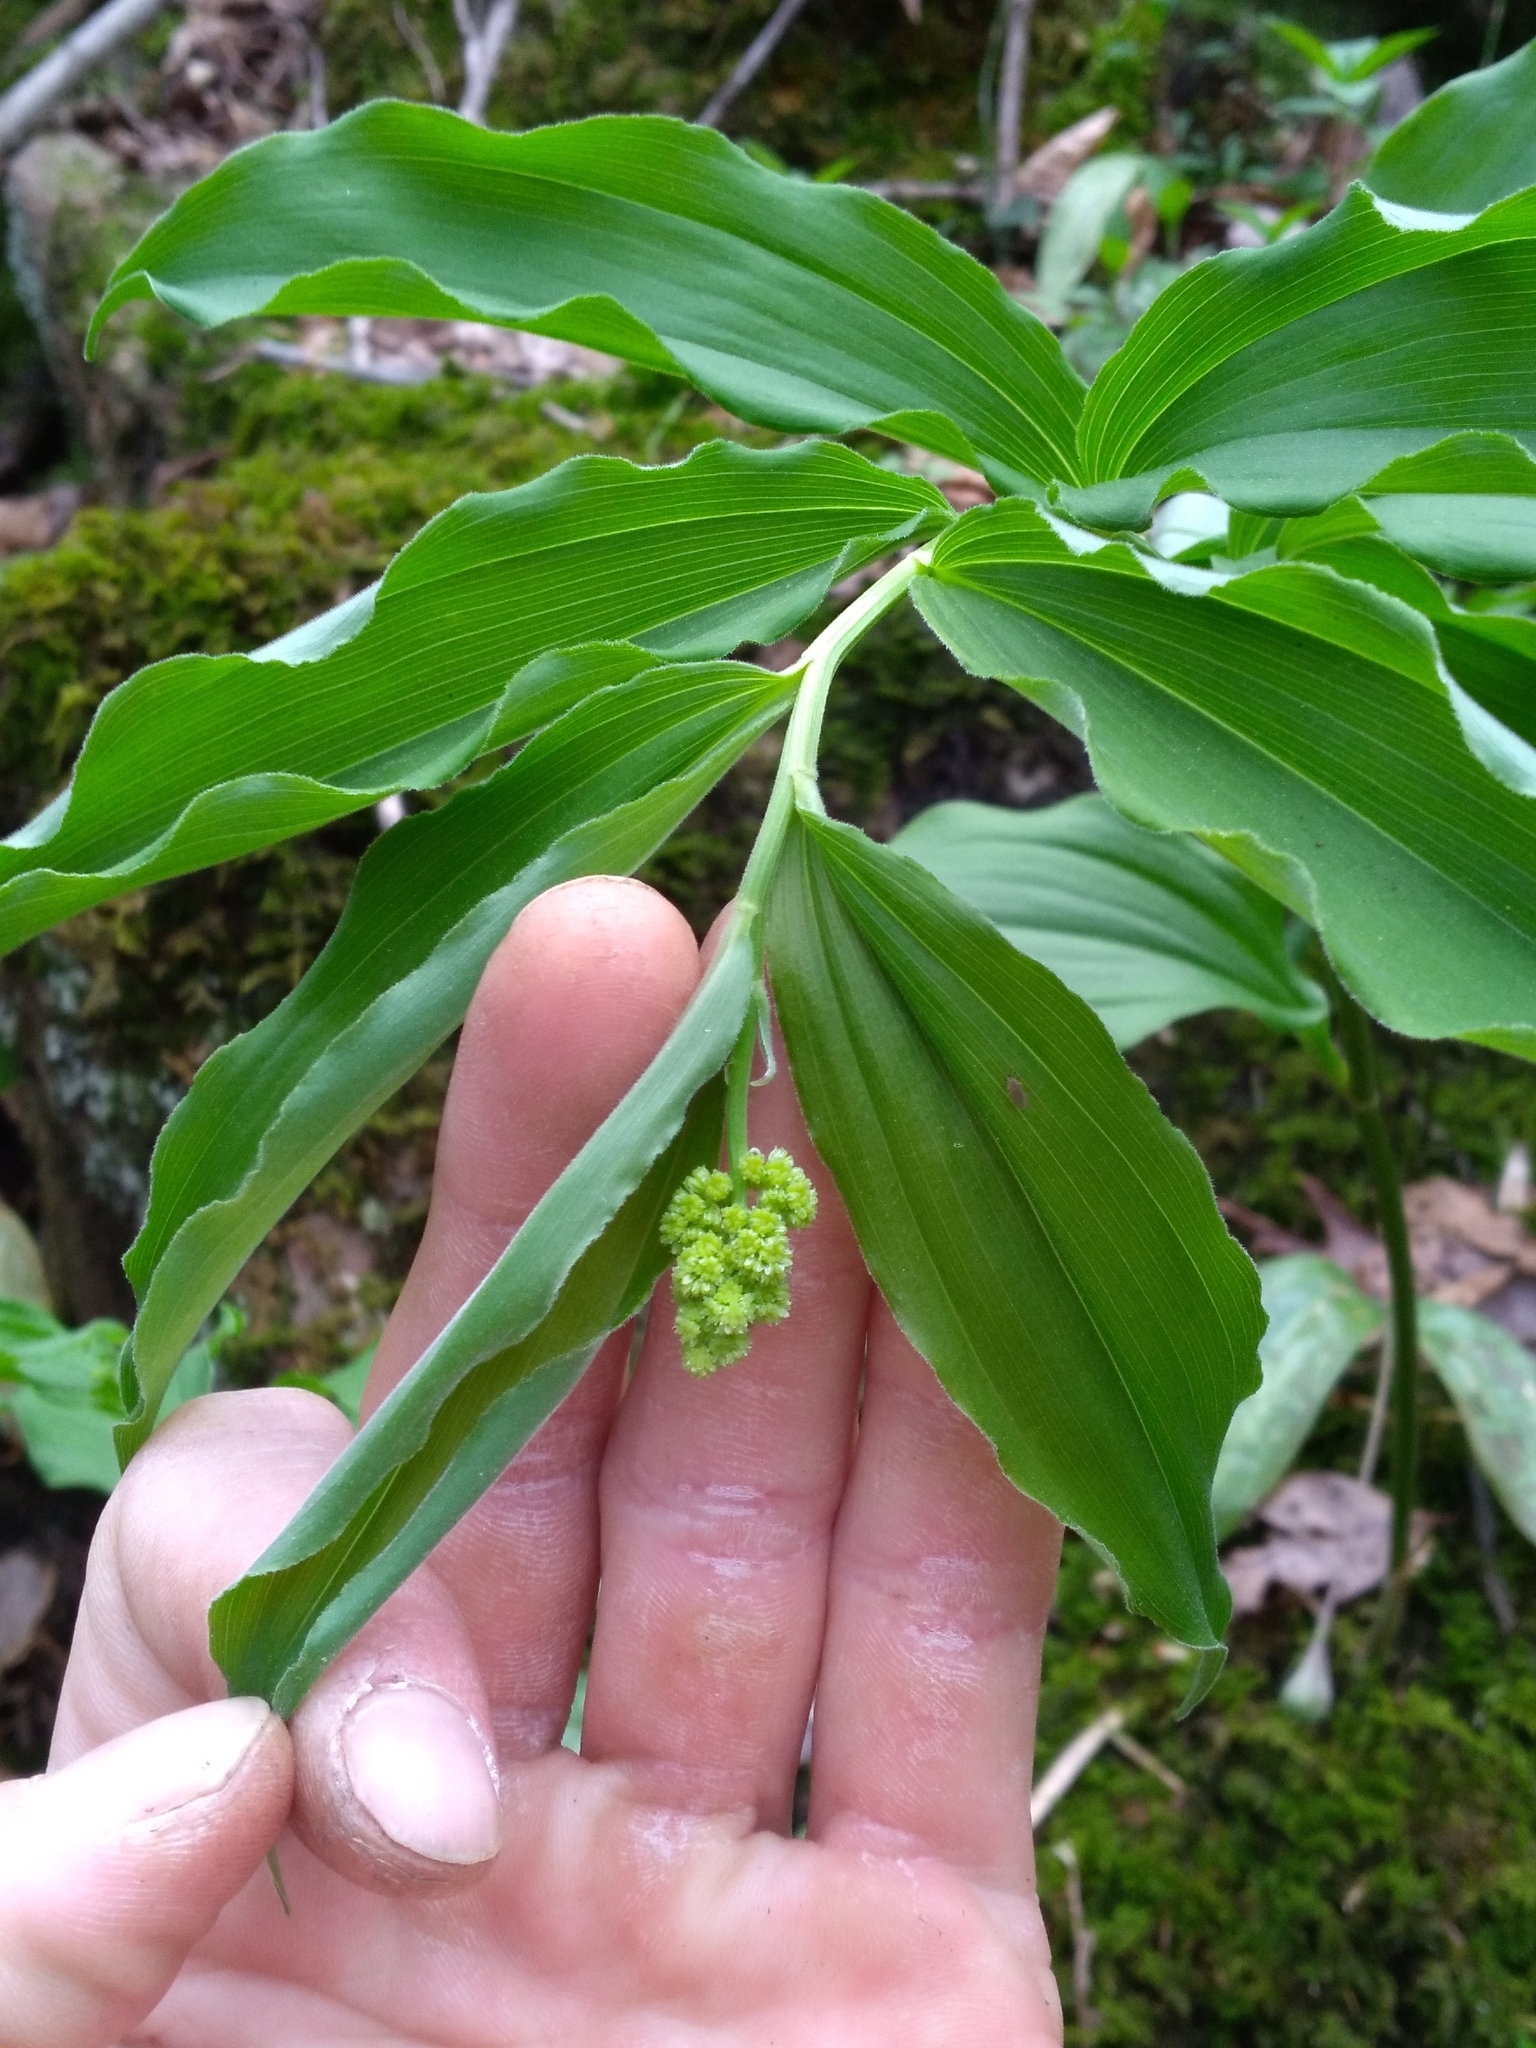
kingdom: Plantae
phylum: Tracheophyta
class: Liliopsida
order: Asparagales
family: Asparagaceae
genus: Maianthemum
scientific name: Maianthemum racemosum
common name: False spikenard
